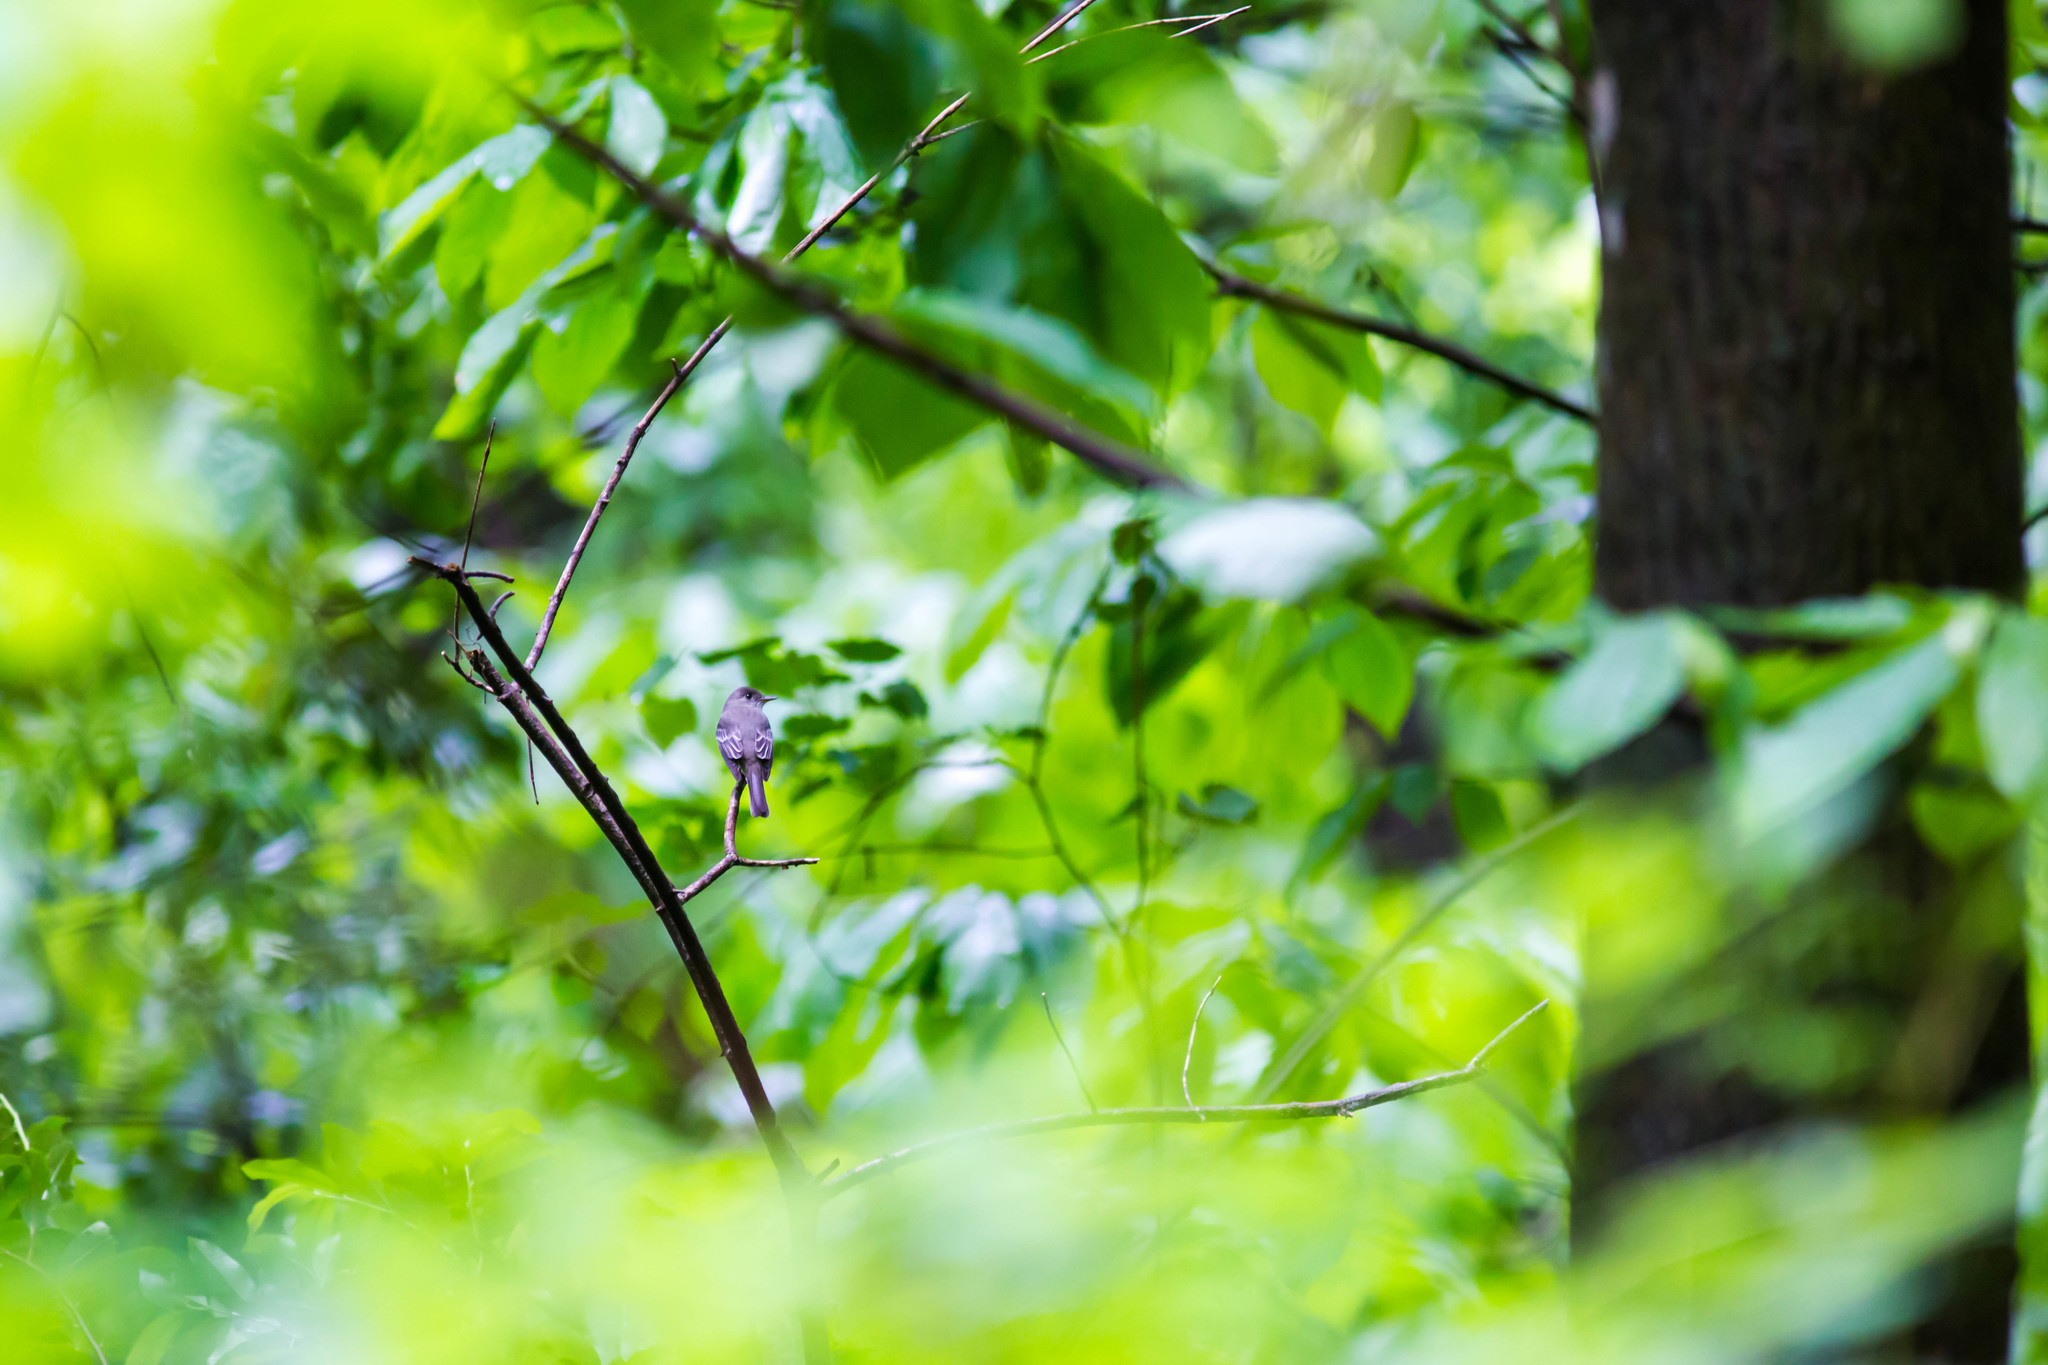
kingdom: Animalia
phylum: Chordata
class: Aves
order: Passeriformes
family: Tyrannidae
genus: Contopus
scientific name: Contopus virens
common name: Eastern wood-pewee
